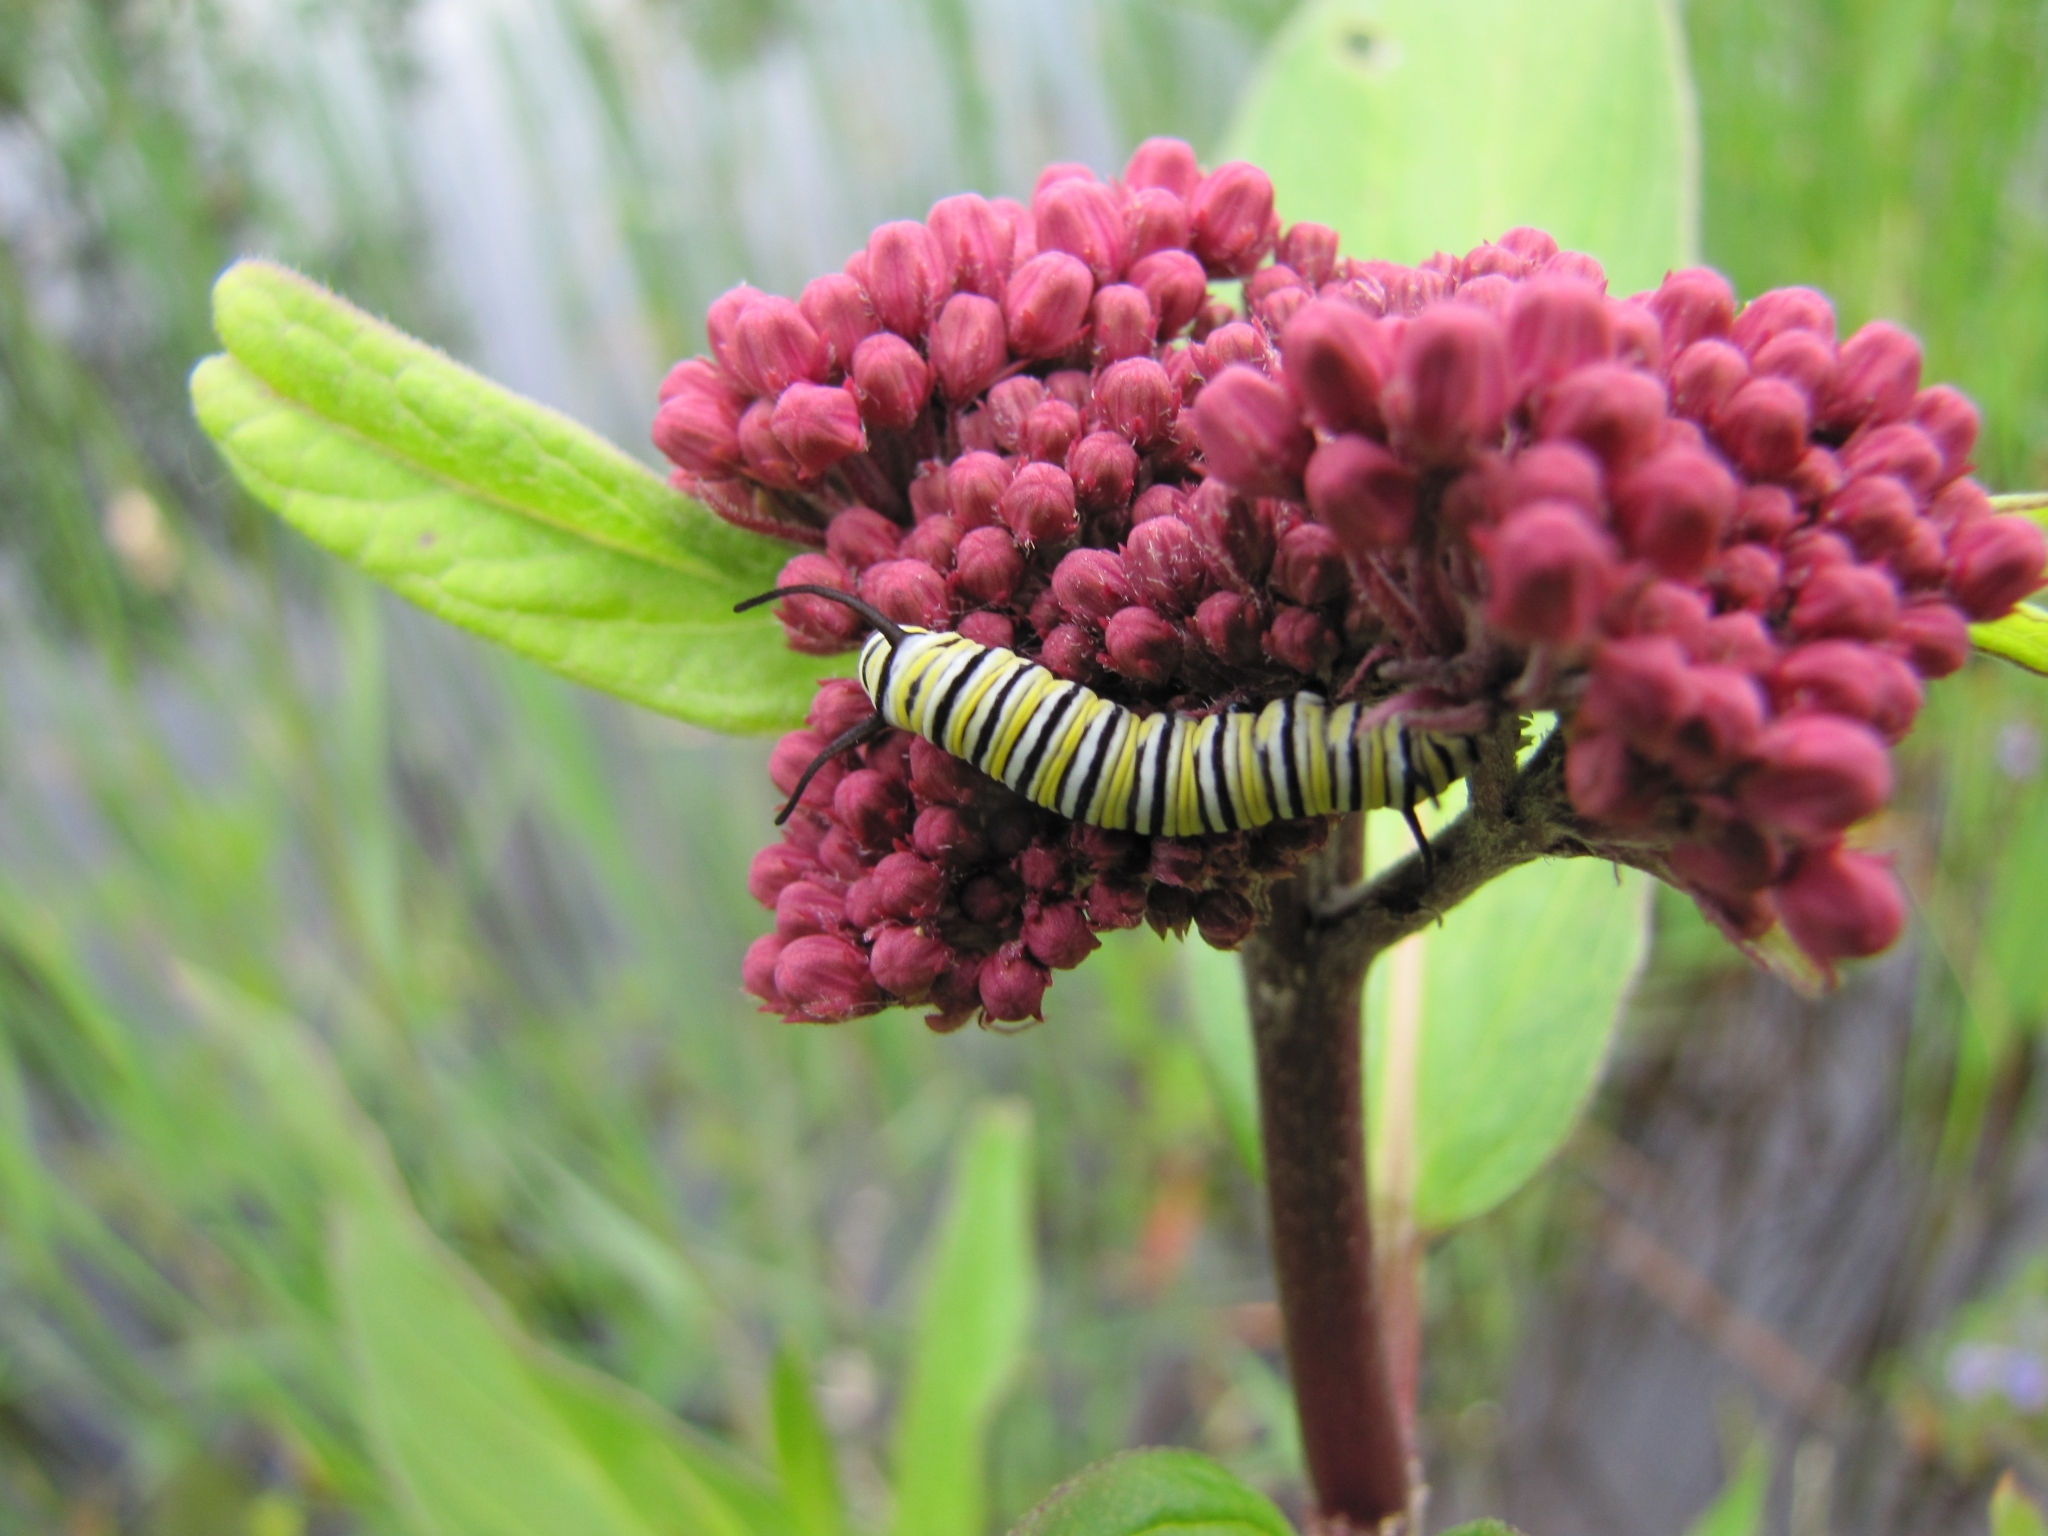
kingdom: Animalia
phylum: Arthropoda
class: Insecta
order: Lepidoptera
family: Nymphalidae
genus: Danaus
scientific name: Danaus plexippus
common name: Monarch
